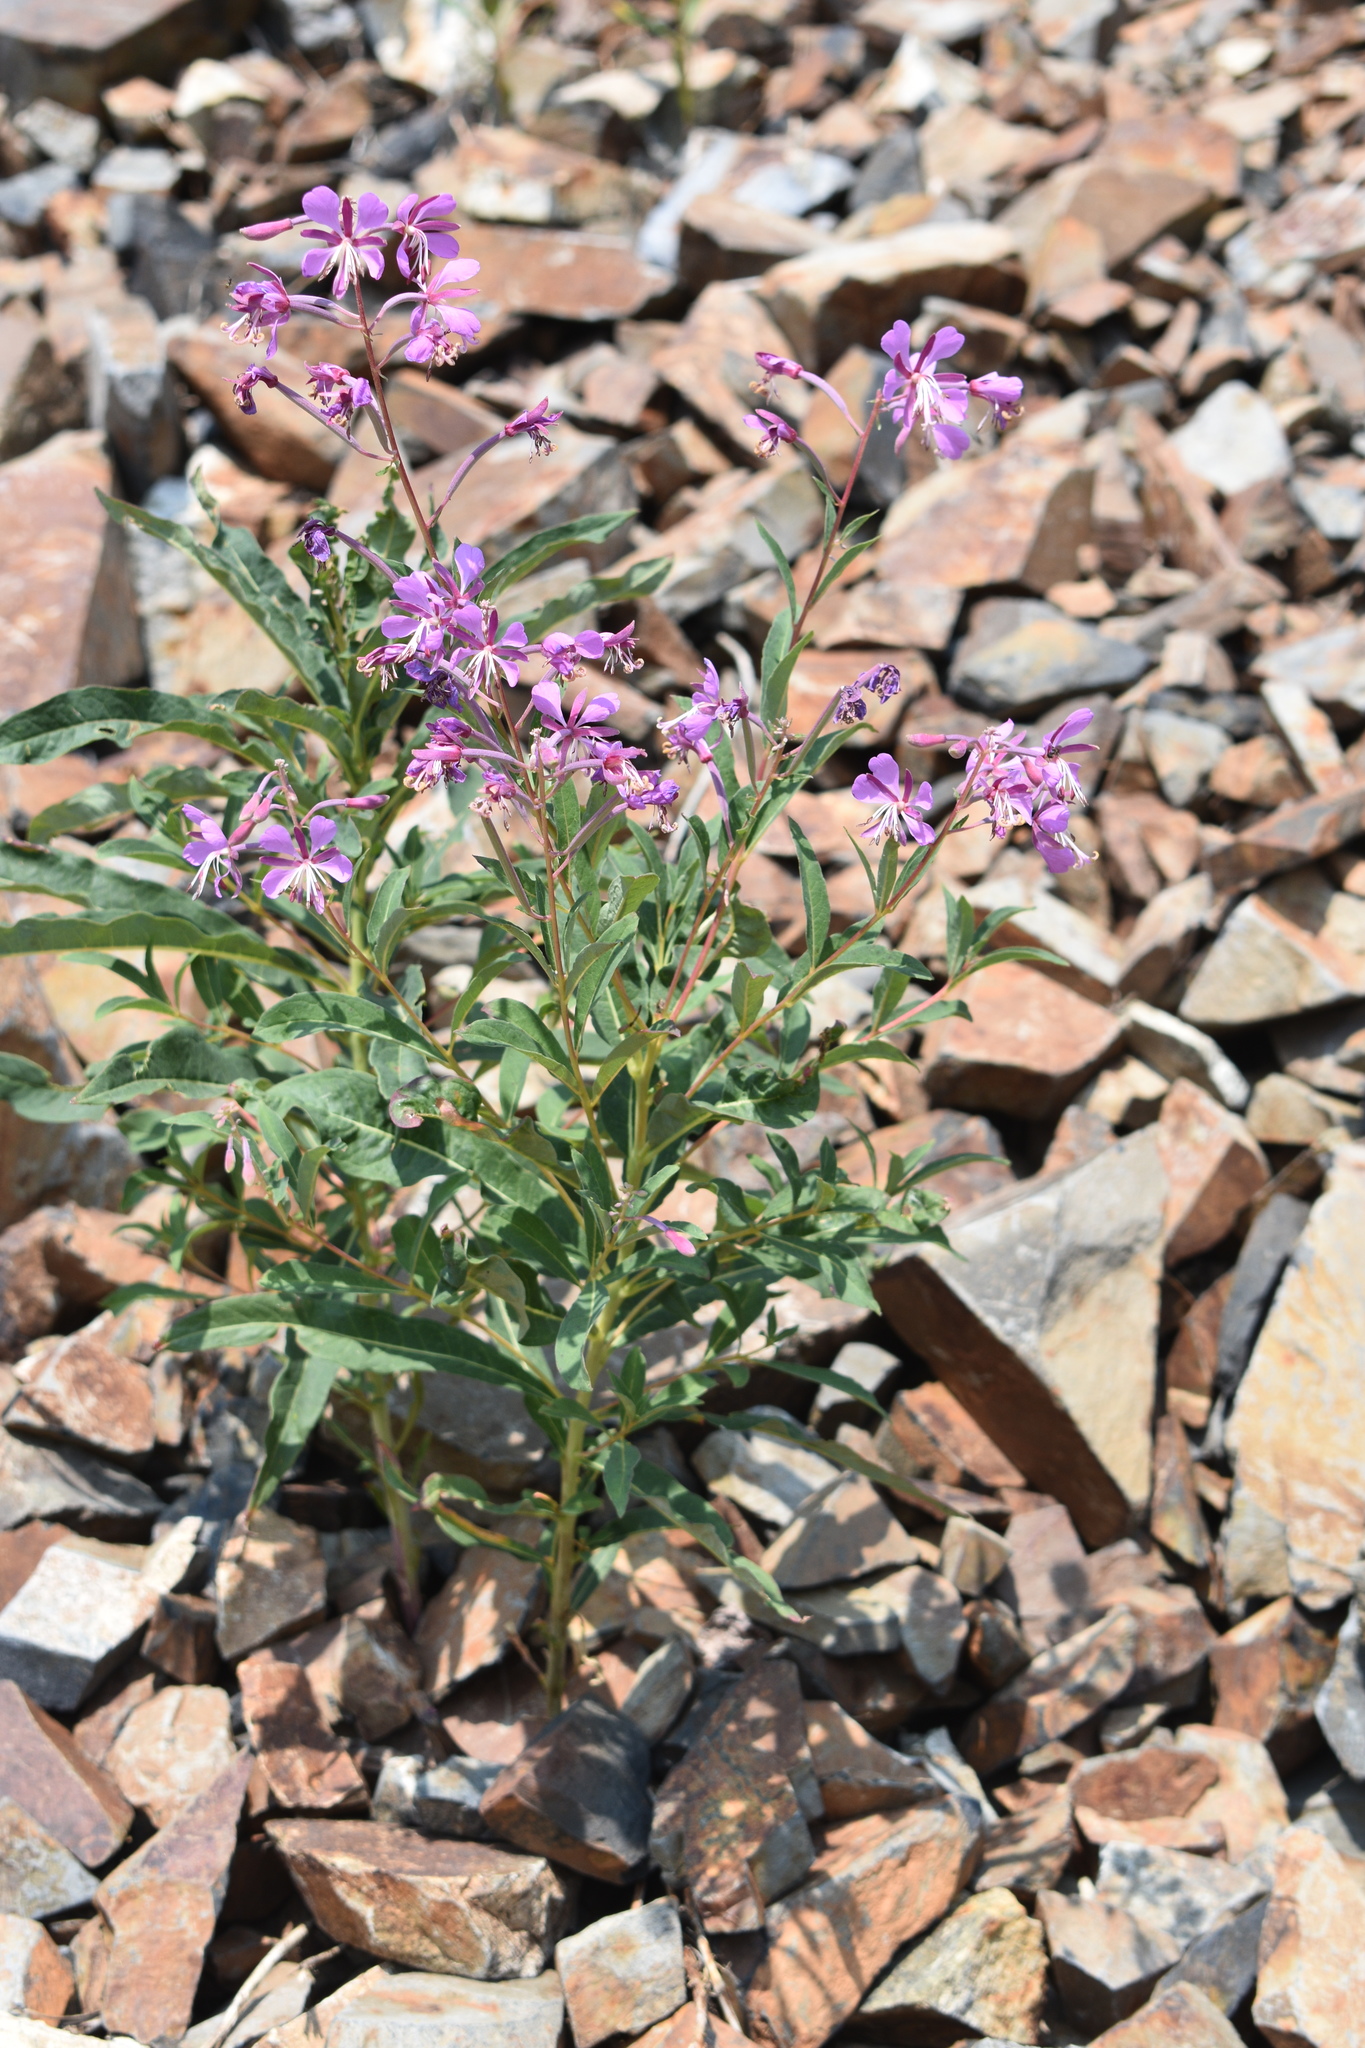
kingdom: Plantae
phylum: Tracheophyta
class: Magnoliopsida
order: Myrtales
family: Onagraceae
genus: Chamaenerion
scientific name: Chamaenerion angustifolium
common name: Fireweed
